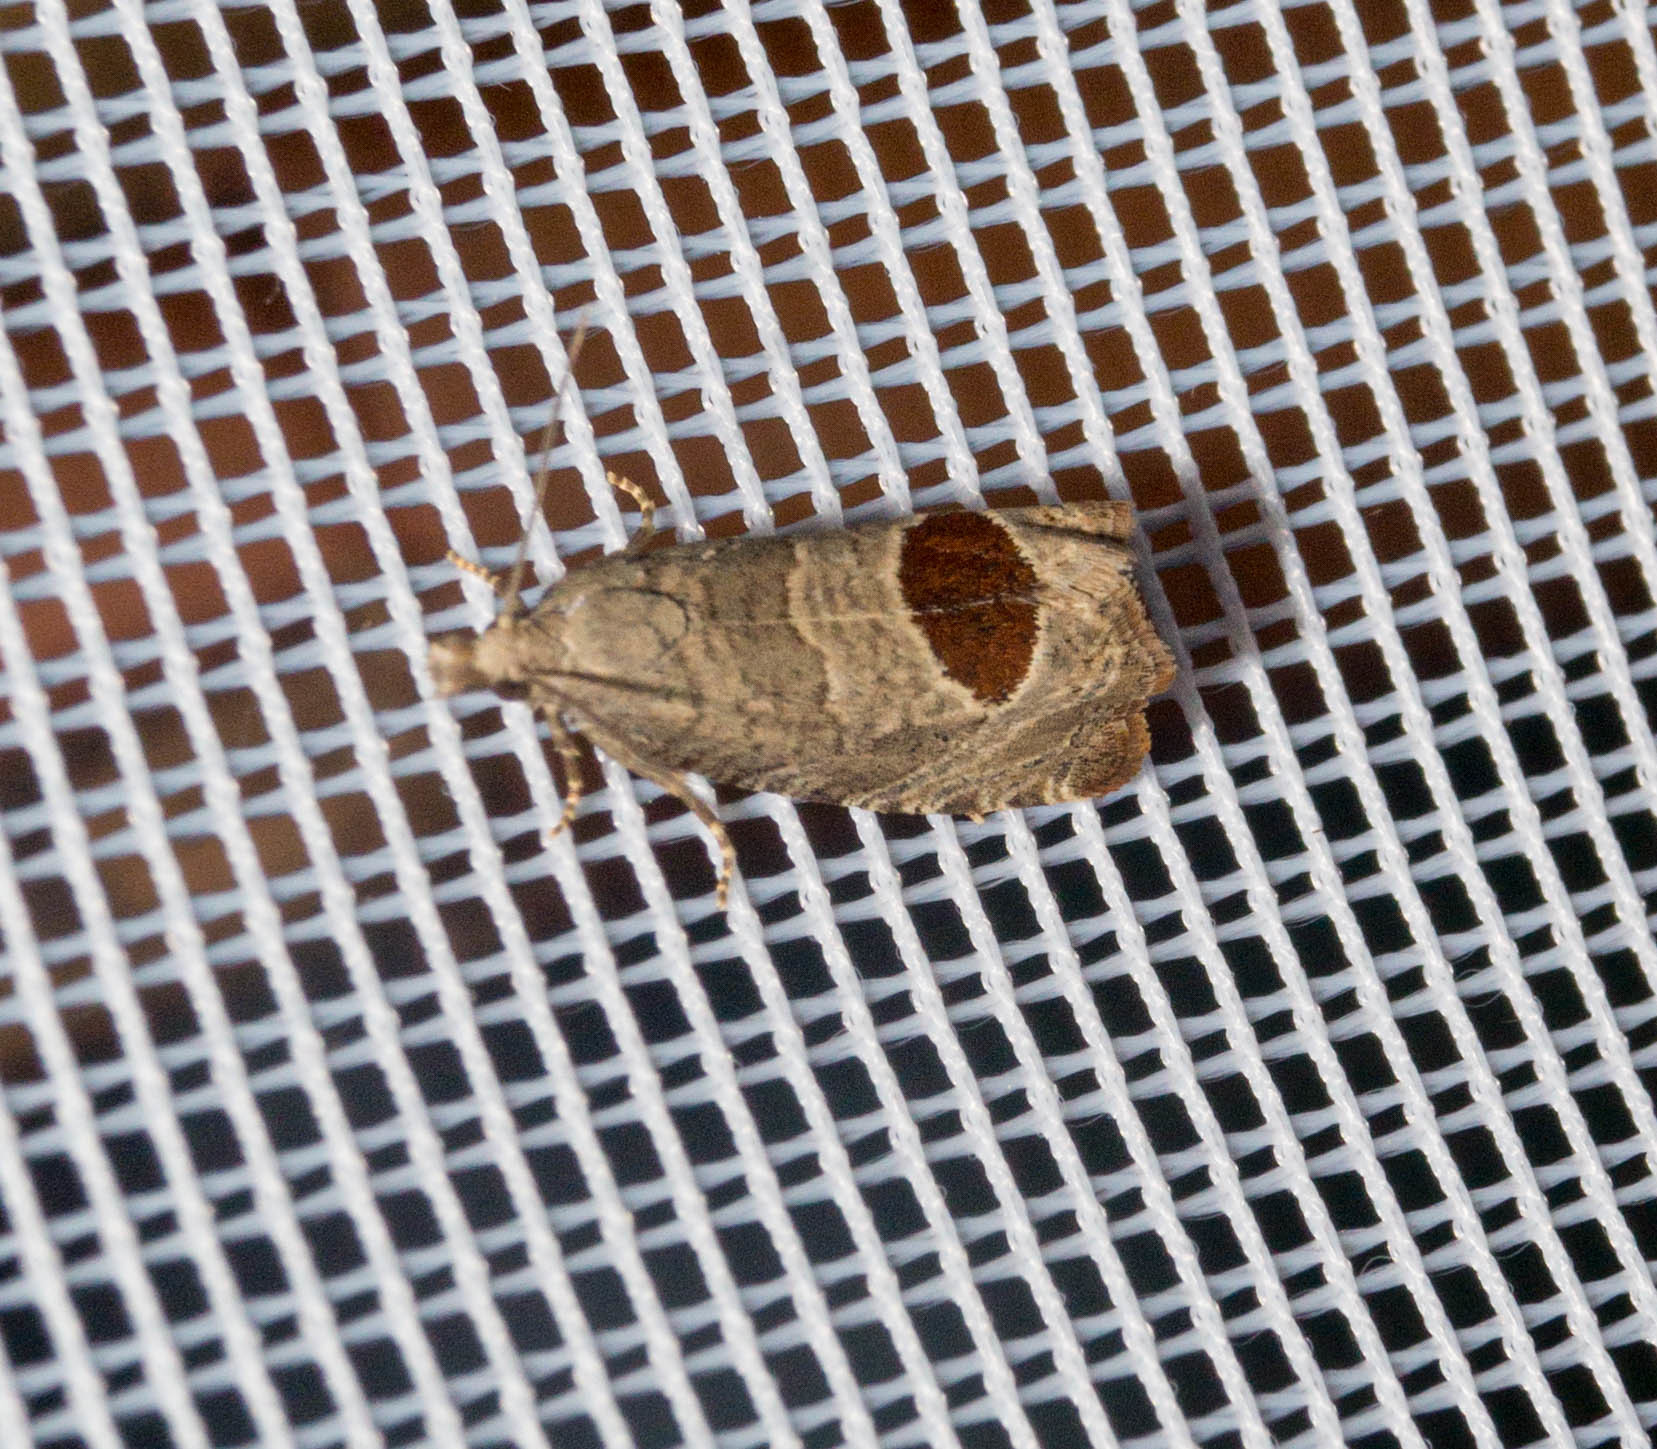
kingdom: Animalia
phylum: Arthropoda
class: Insecta
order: Lepidoptera
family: Tortricidae
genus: Notocelia
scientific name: Notocelia uddmanniana
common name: Bramble shoot moth
